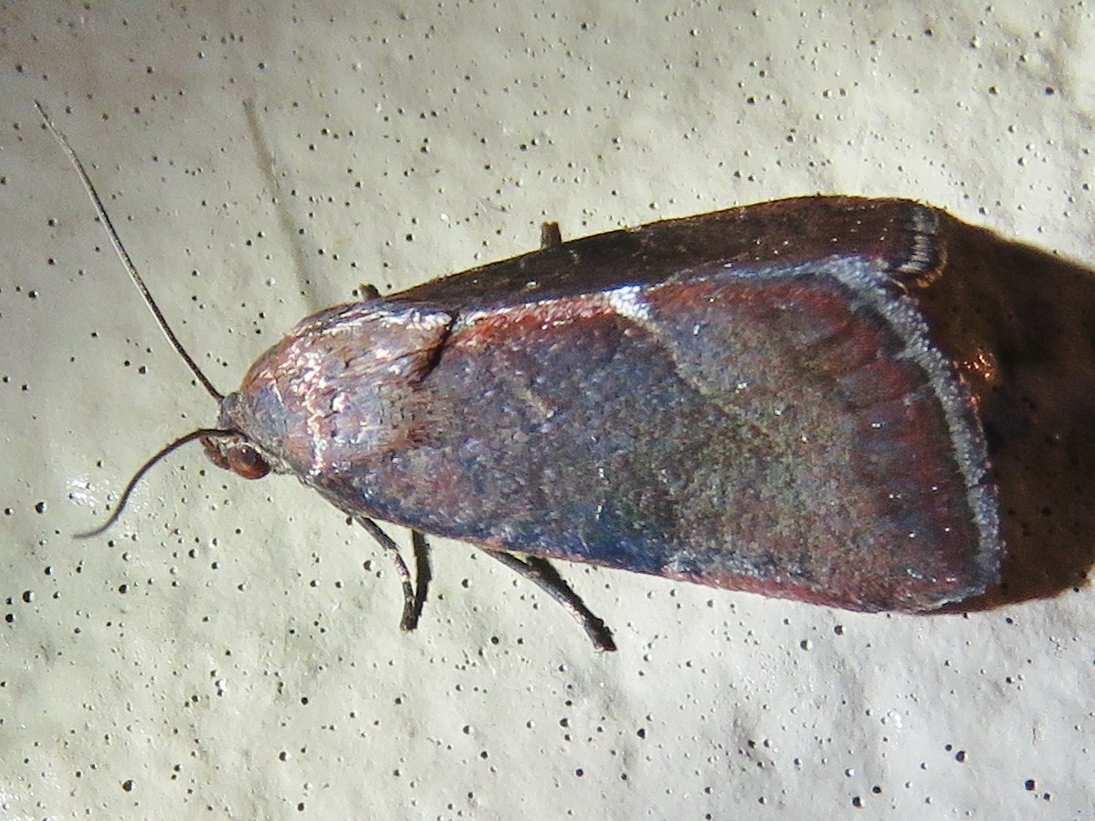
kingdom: Animalia
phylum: Arthropoda
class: Insecta
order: Lepidoptera
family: Noctuidae
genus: Galgula
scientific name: Galgula partita
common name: Wedgeling
